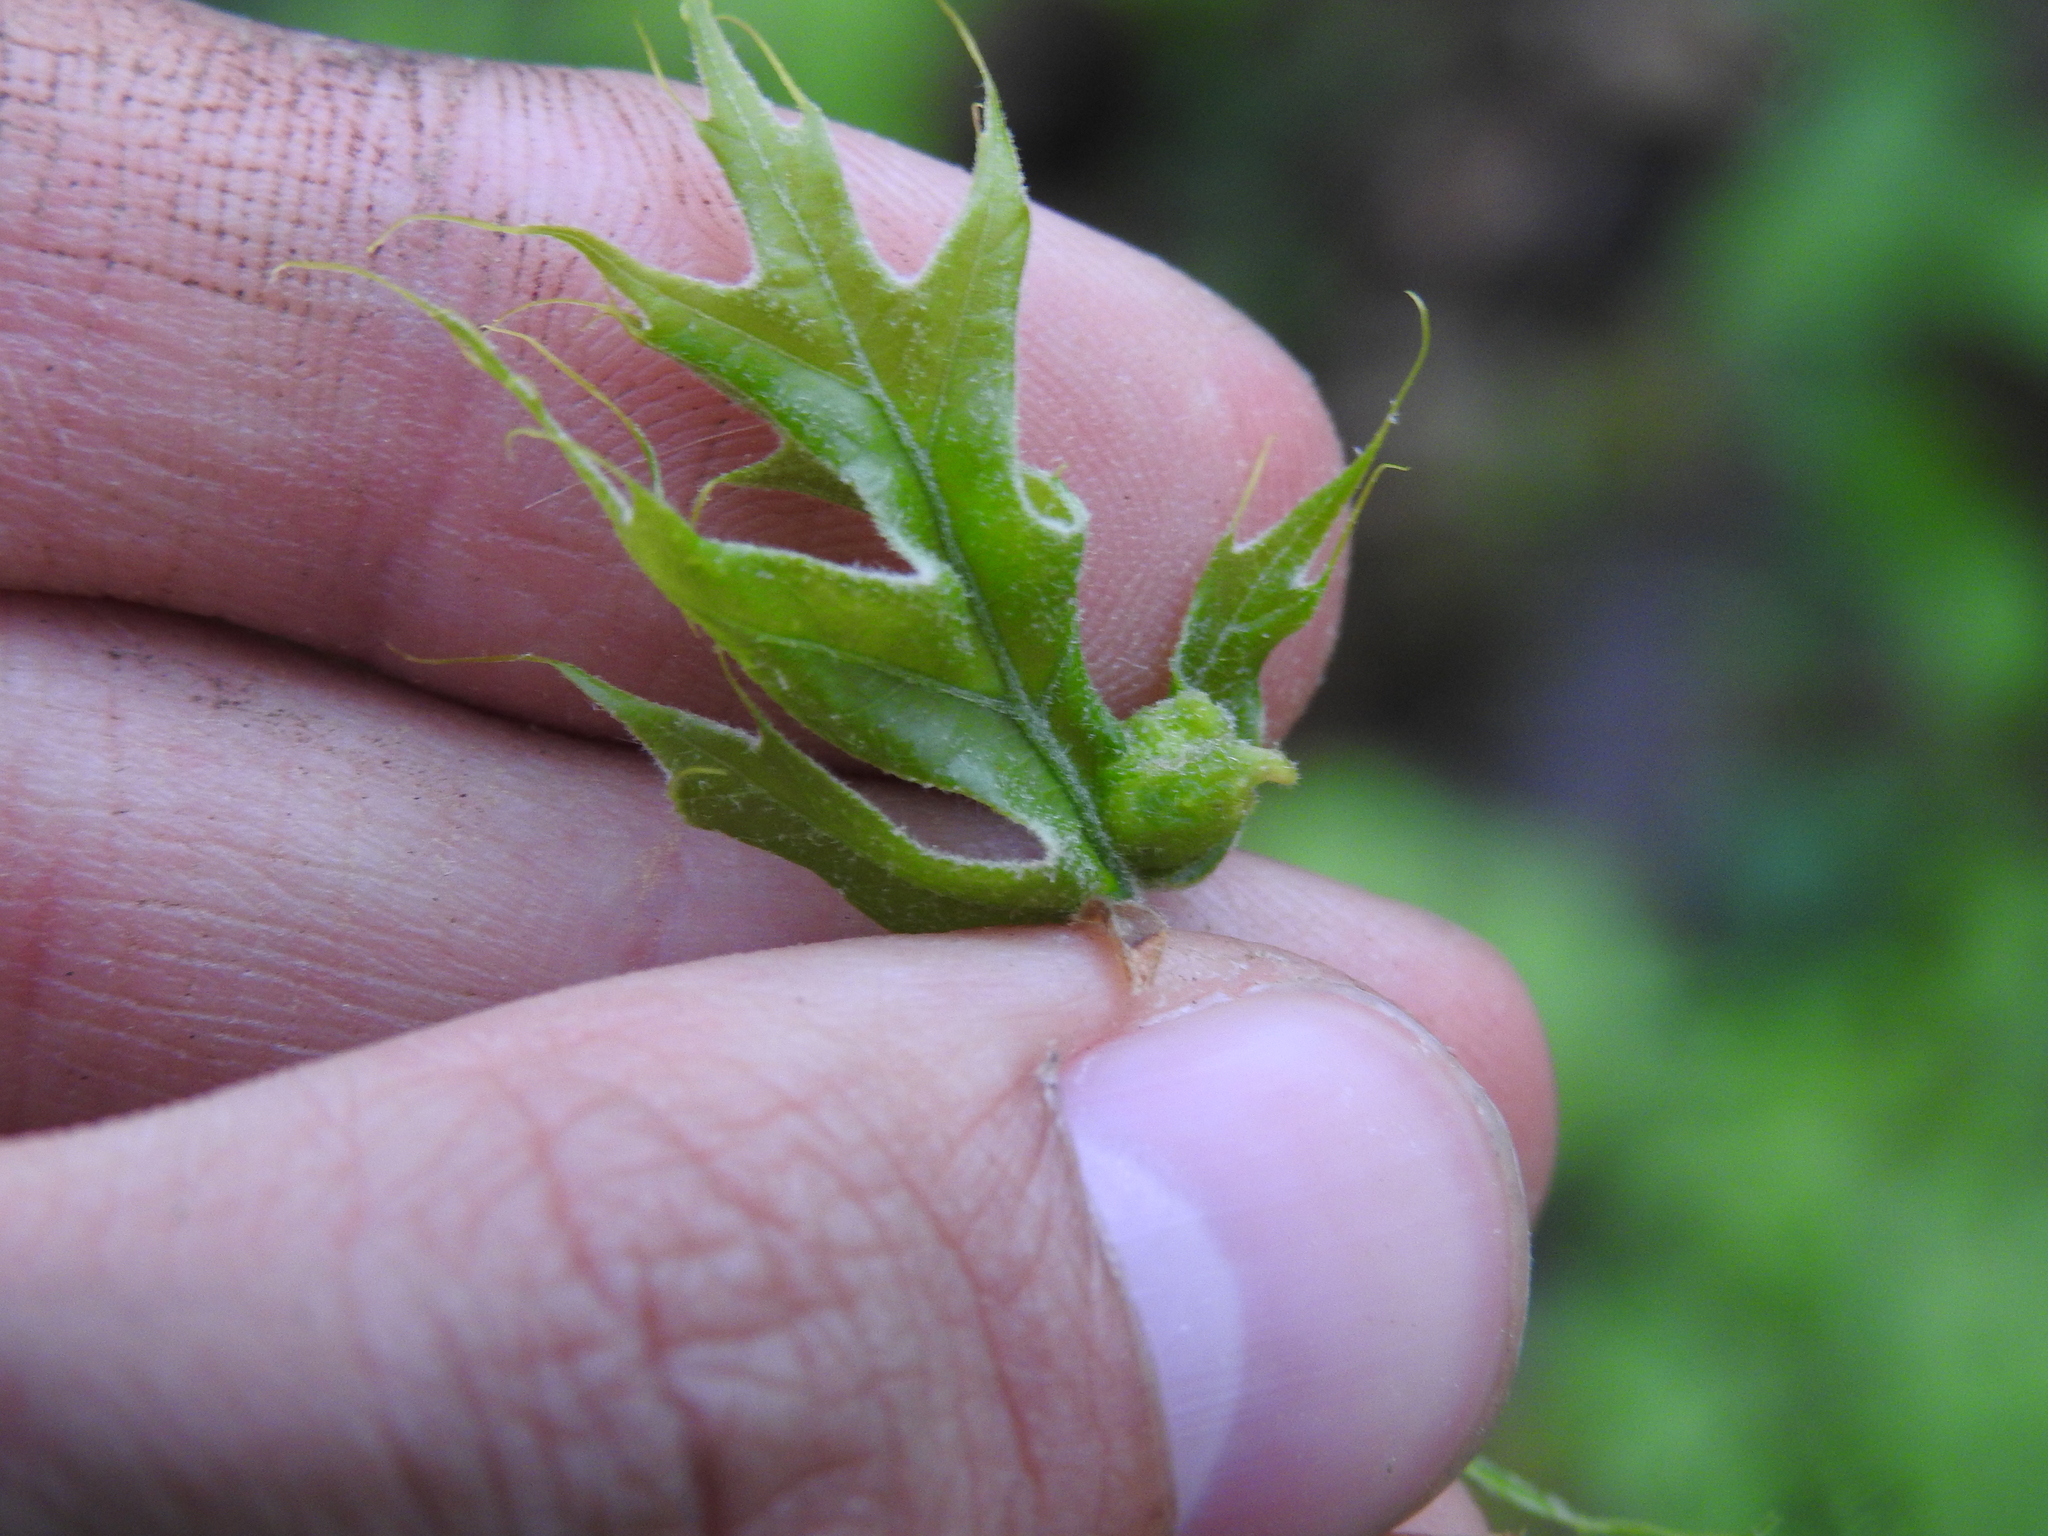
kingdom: Animalia
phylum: Arthropoda
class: Insecta
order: Hymenoptera
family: Cynipidae
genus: Dryocosmus
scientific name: Dryocosmus quercuspalustris
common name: Succulent oak gall wasp
